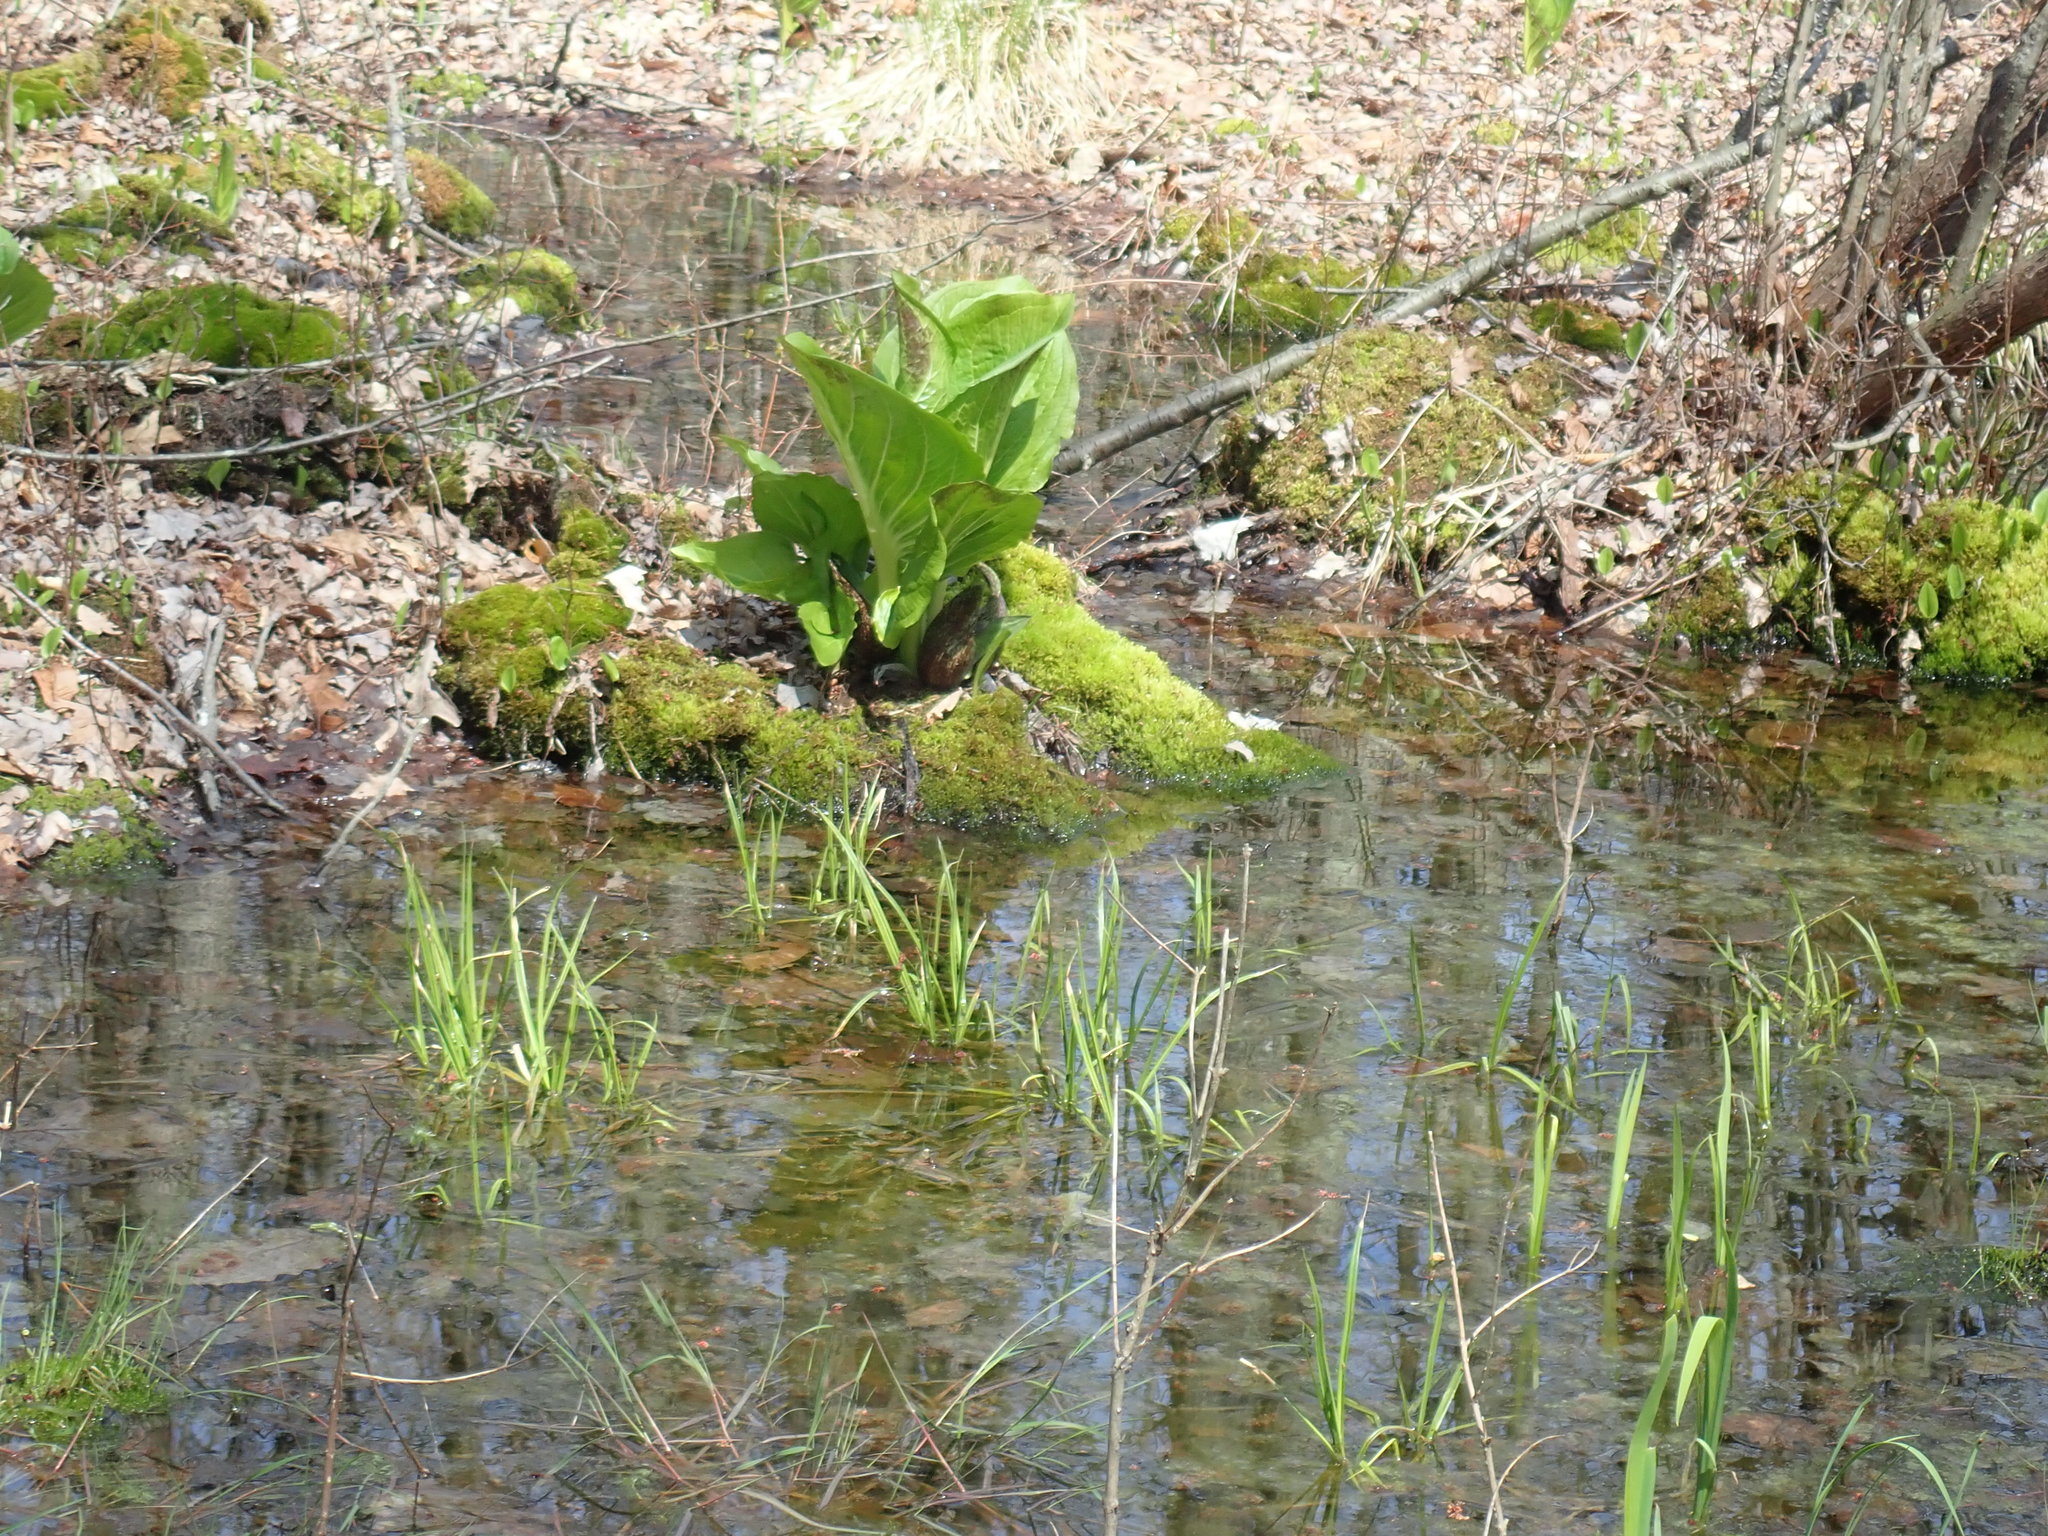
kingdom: Plantae
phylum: Tracheophyta
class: Liliopsida
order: Alismatales
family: Araceae
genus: Symplocarpus
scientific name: Symplocarpus foetidus
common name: Eastern skunk cabbage
